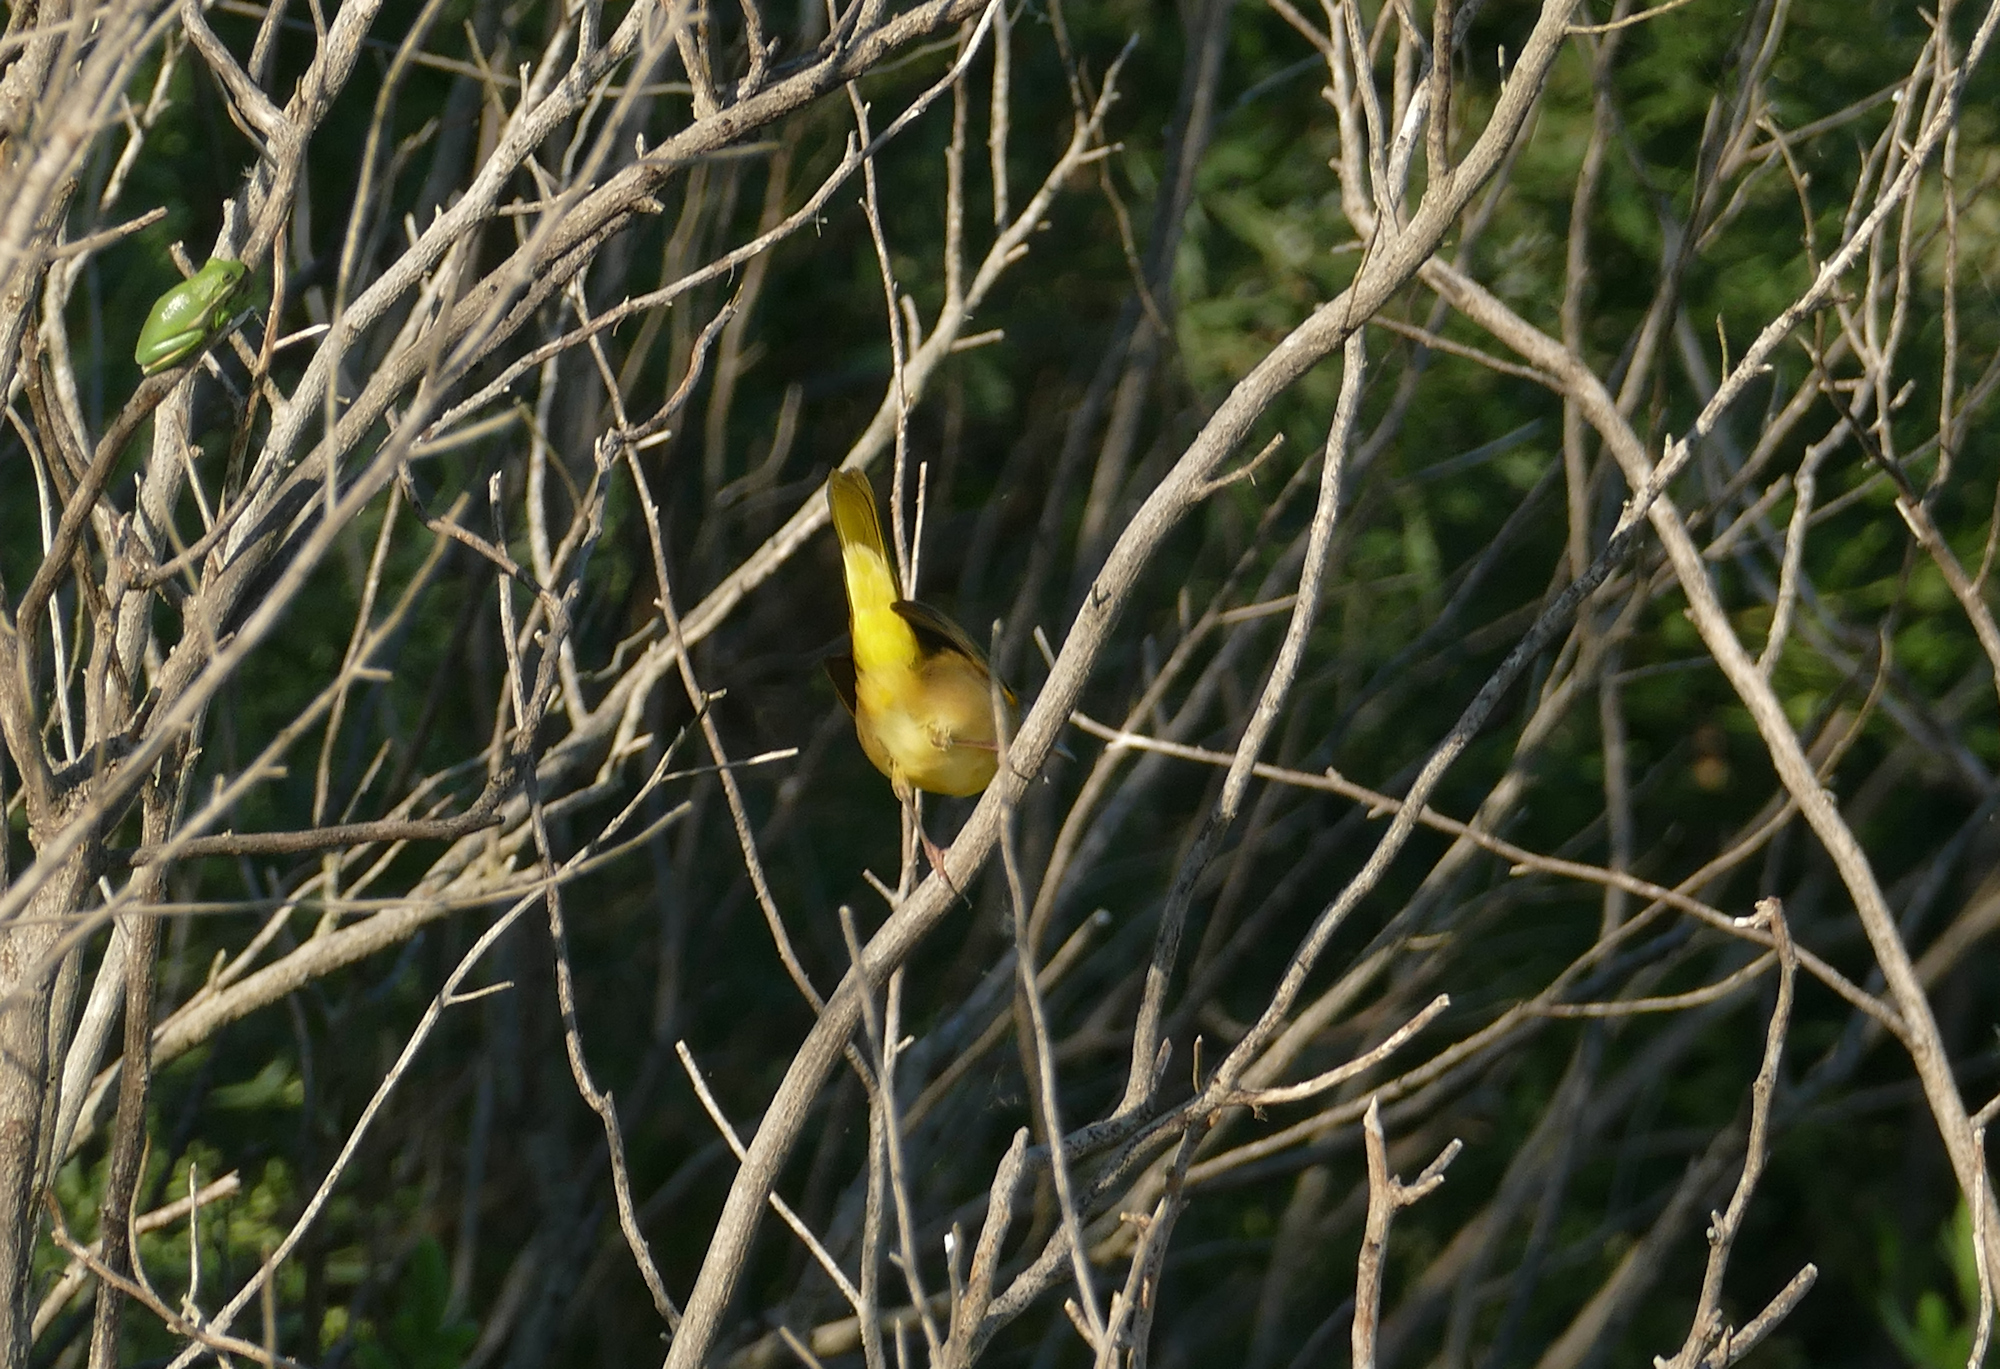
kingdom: Animalia
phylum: Chordata
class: Aves
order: Passeriformes
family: Parulidae
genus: Geothlypis
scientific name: Geothlypis trichas
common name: Common yellowthroat
